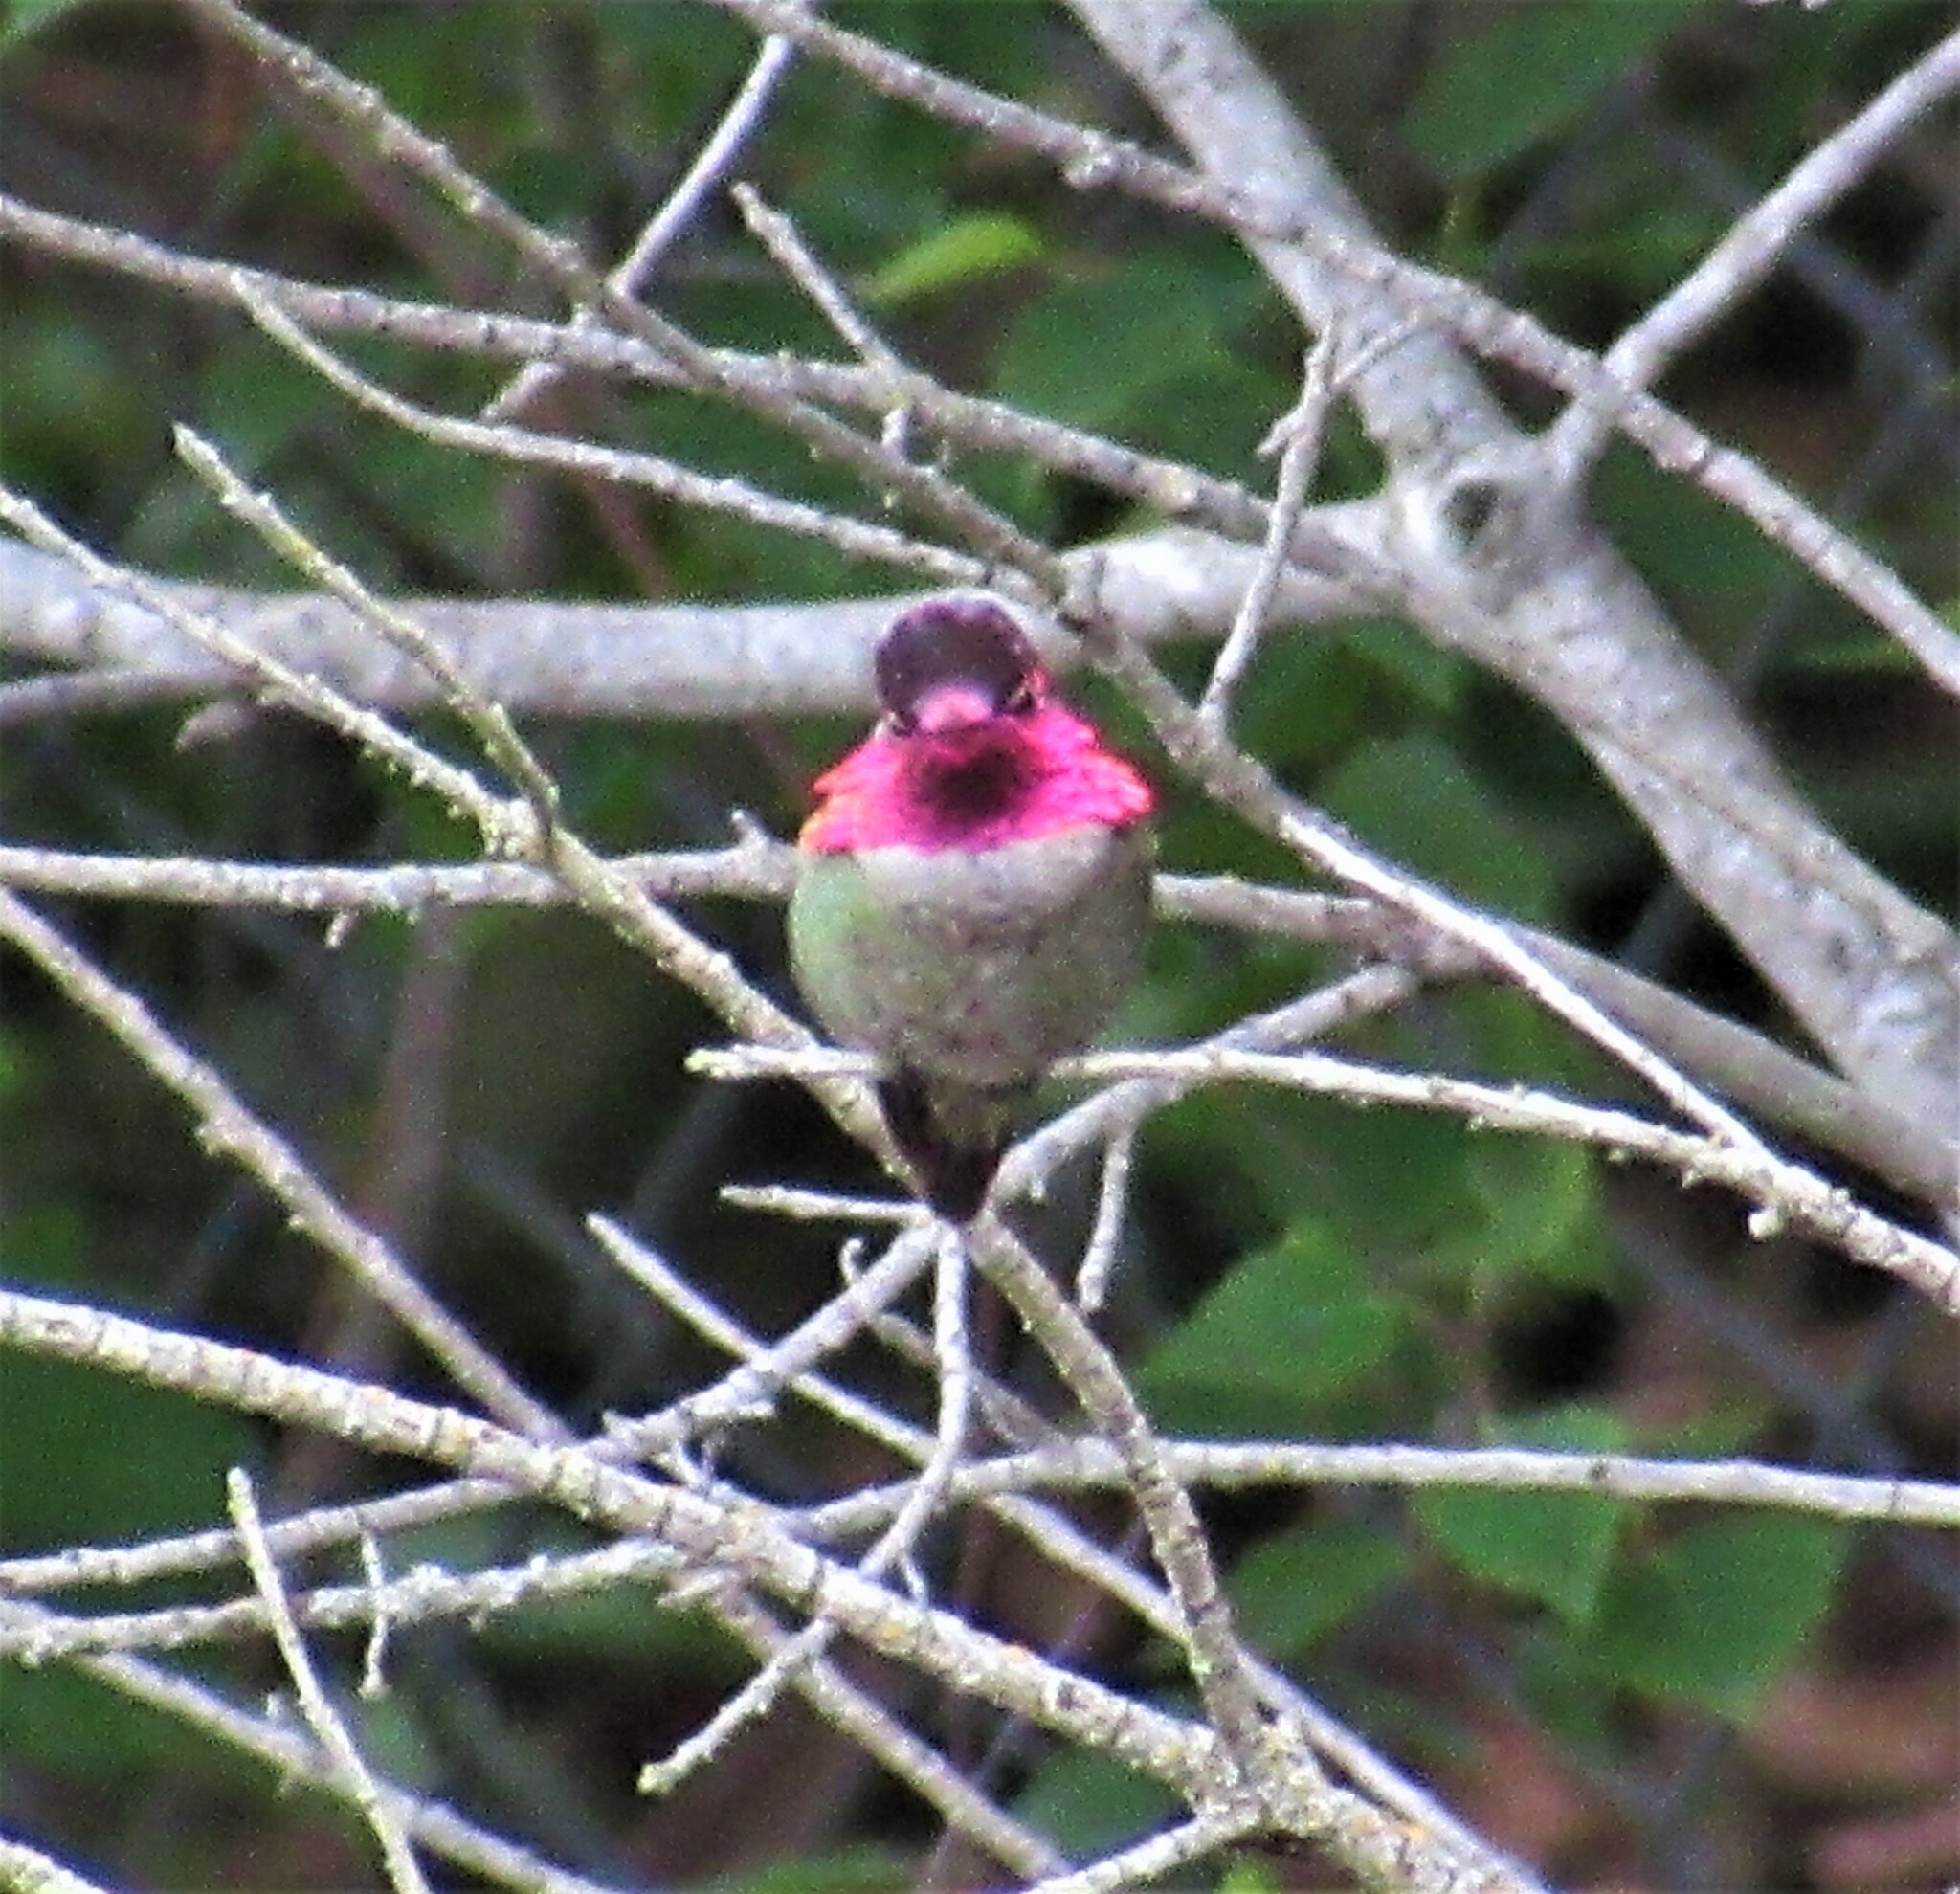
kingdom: Animalia
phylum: Chordata
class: Aves
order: Apodiformes
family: Trochilidae
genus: Calypte
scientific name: Calypte anna
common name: Anna's hummingbird
